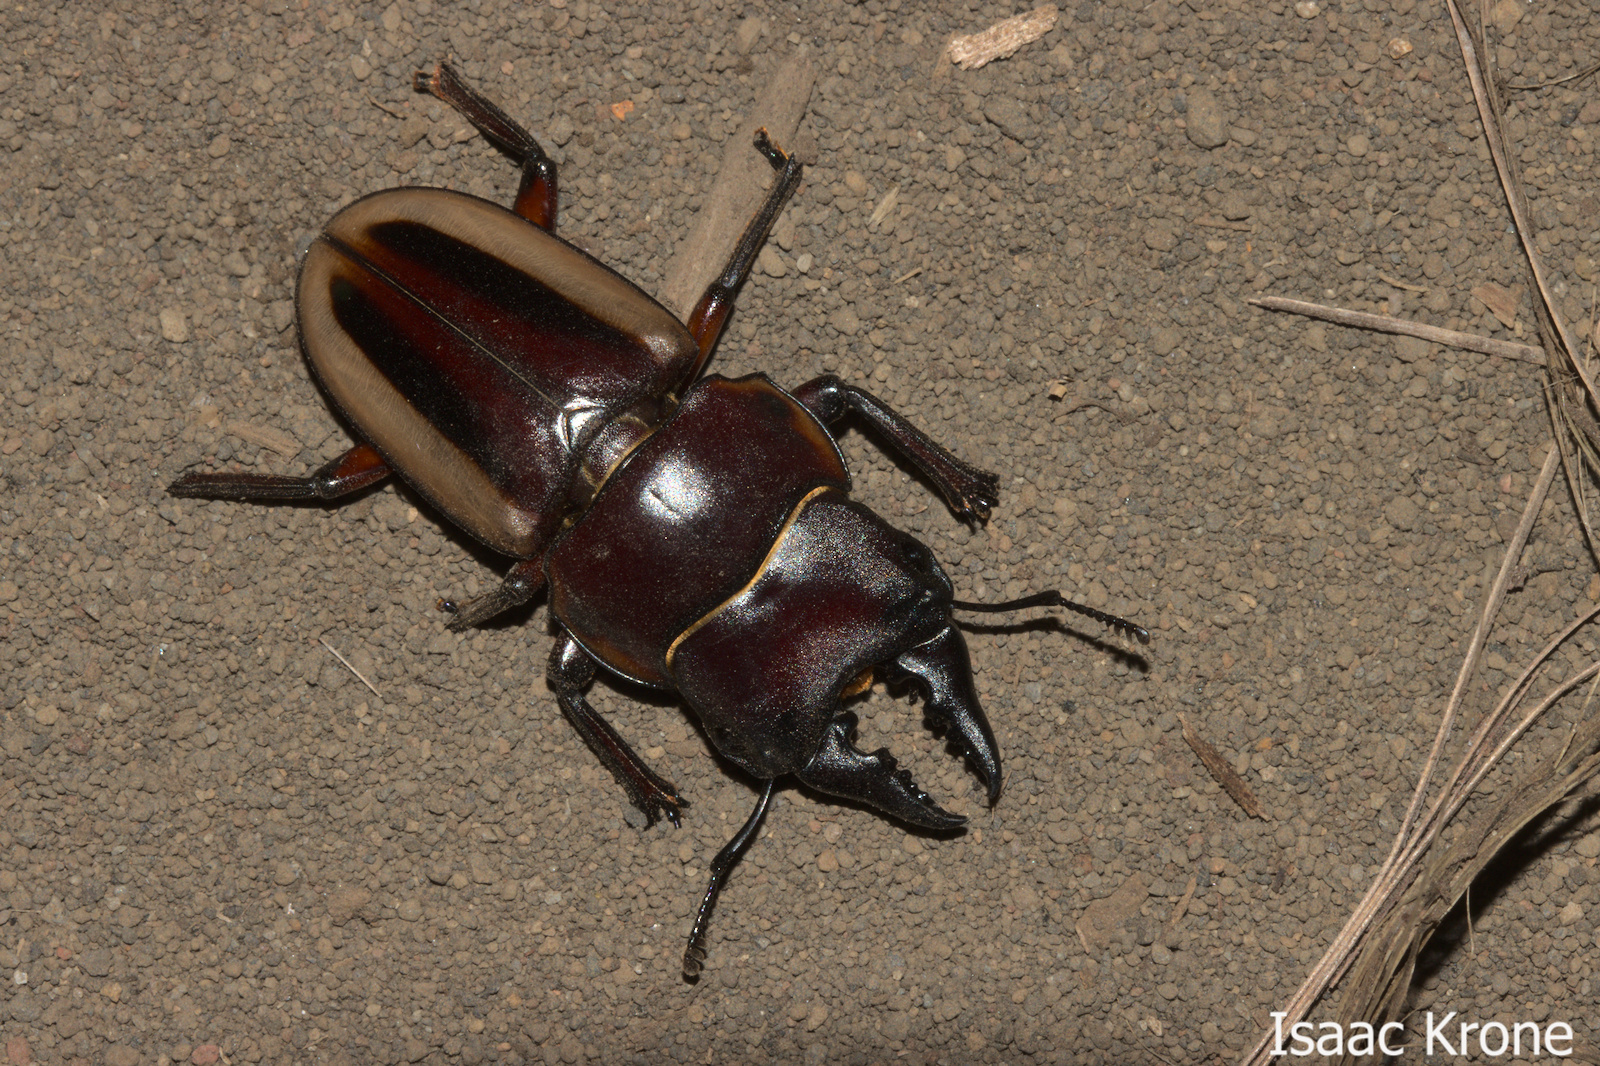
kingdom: Animalia
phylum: Arthropoda
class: Insecta
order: Coleoptera
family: Lucanidae
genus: Prosopocoilus
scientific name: Prosopocoilus lateralis
